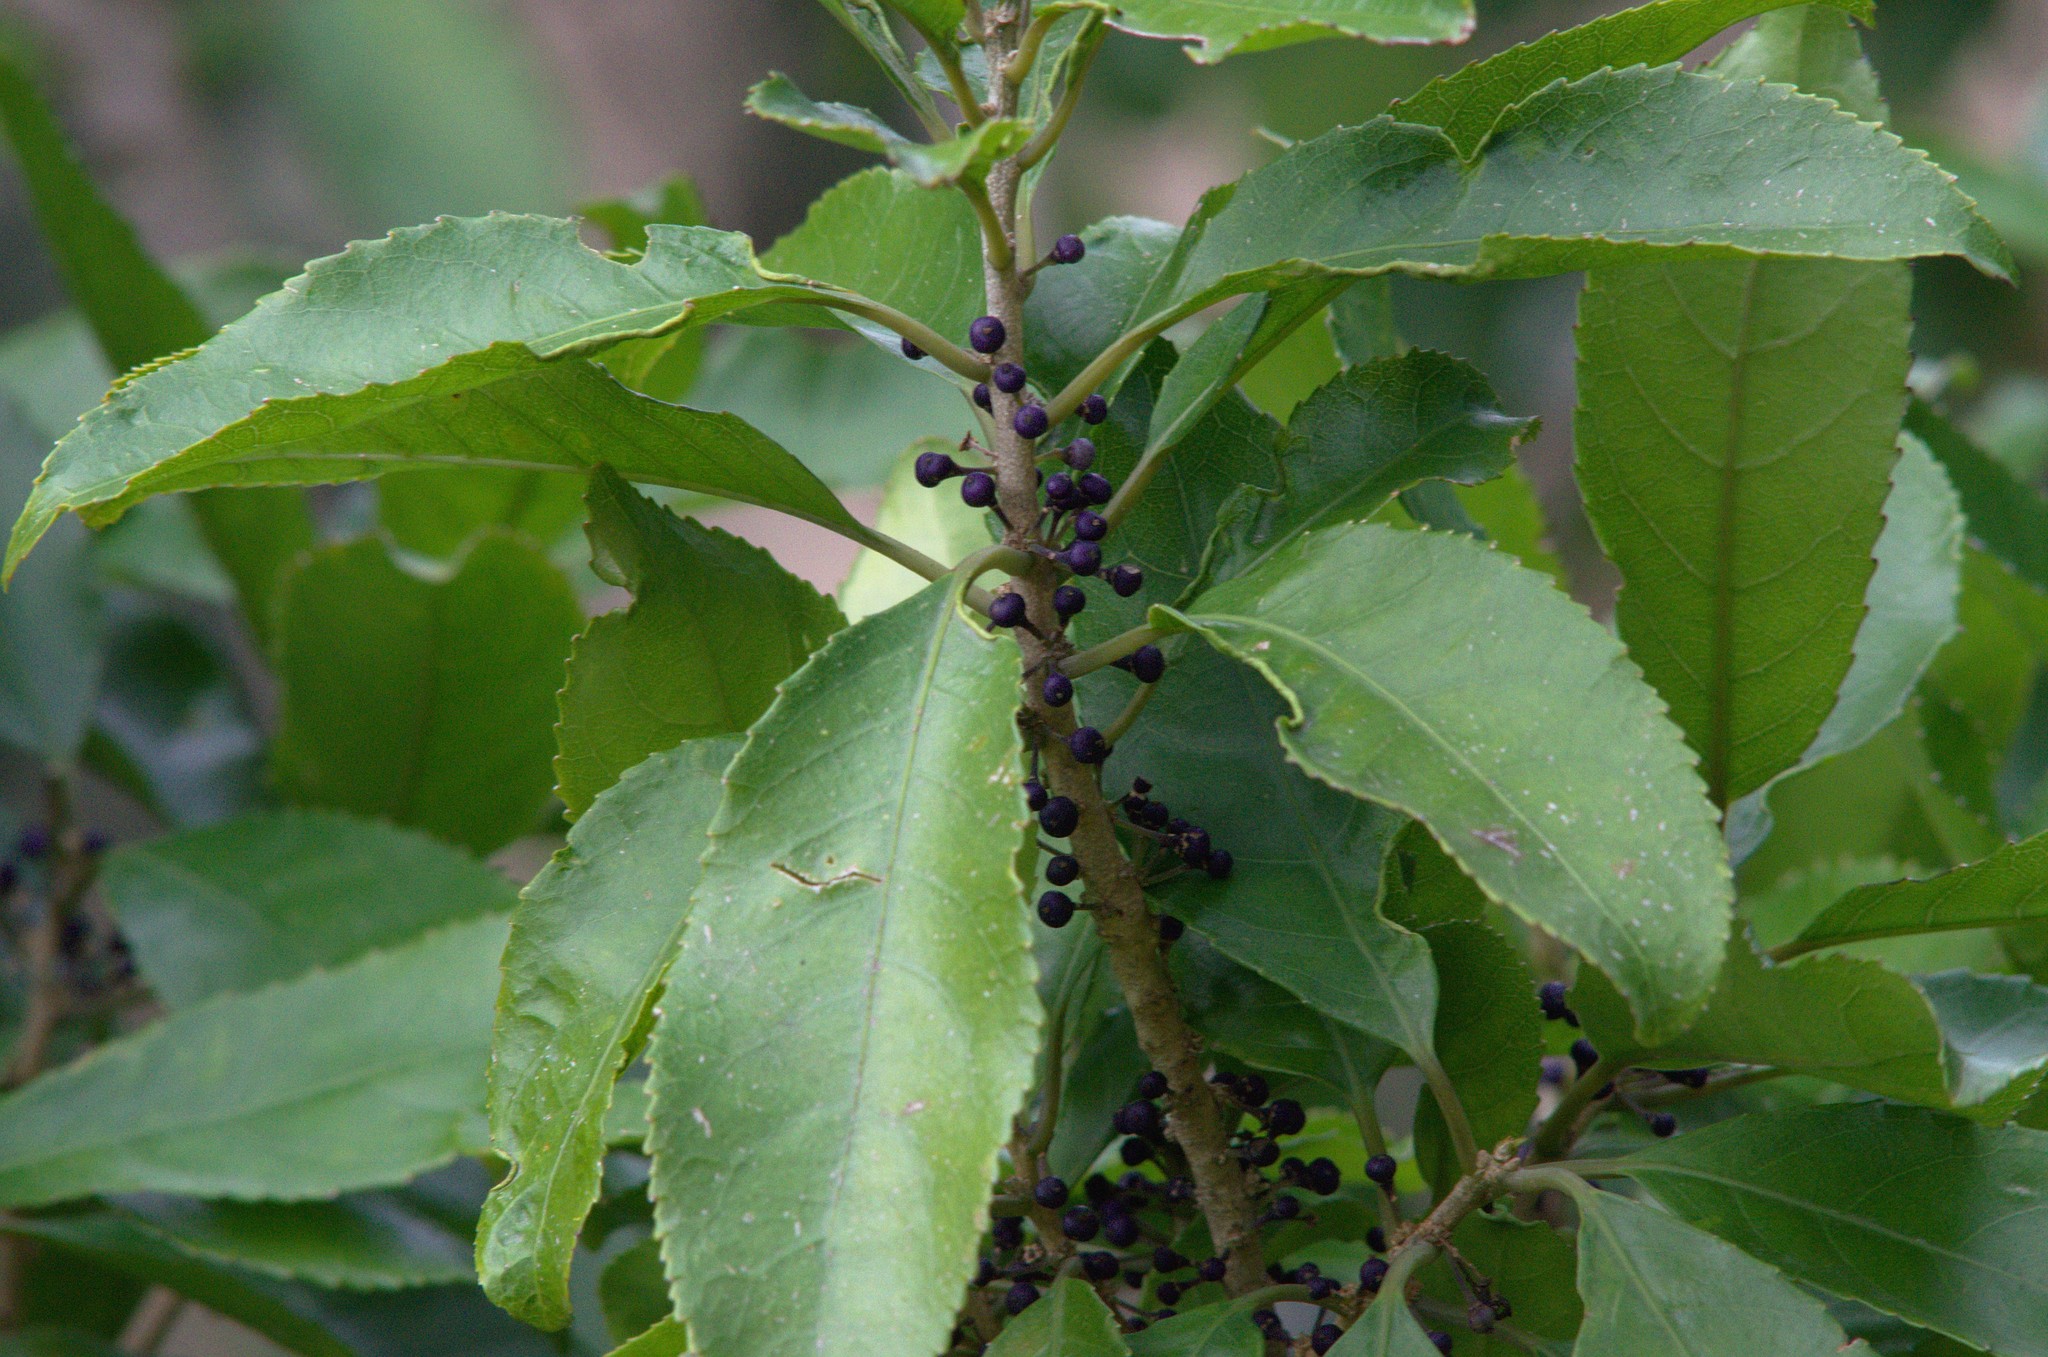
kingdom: Plantae
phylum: Tracheophyta
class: Magnoliopsida
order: Malpighiales
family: Violaceae
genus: Melicytus
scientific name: Melicytus ramiflorus
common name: Mahoe
